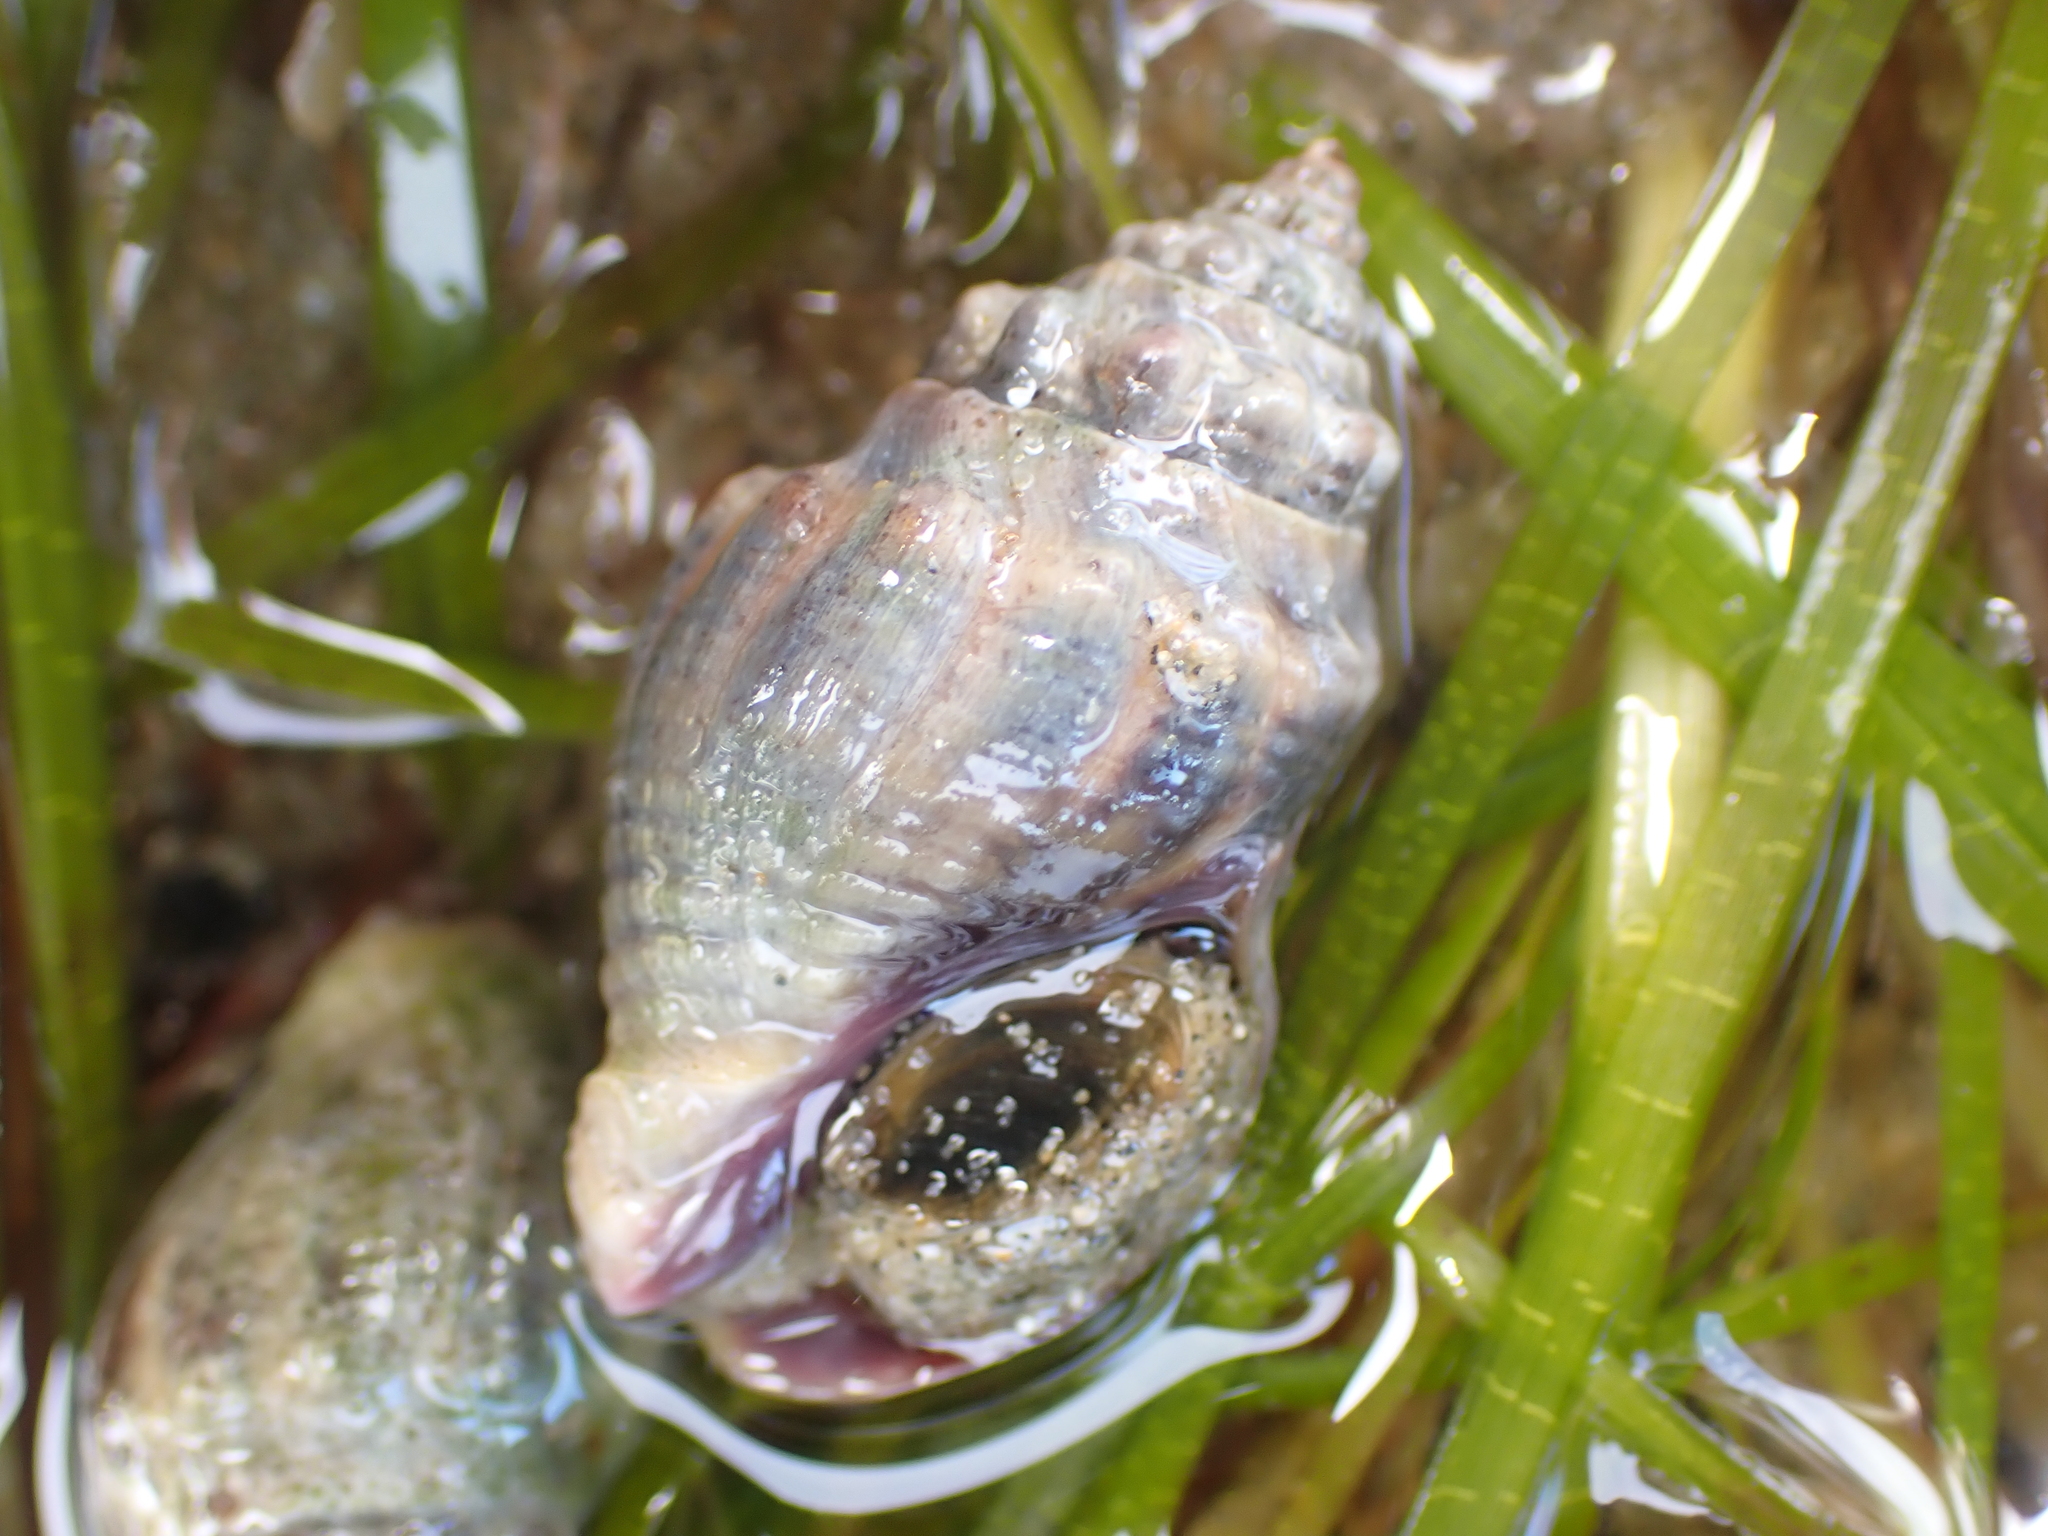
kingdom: Animalia
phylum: Mollusca
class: Gastropoda
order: Neogastropoda
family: Cominellidae
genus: Cominella
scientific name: Cominella glandiformis
